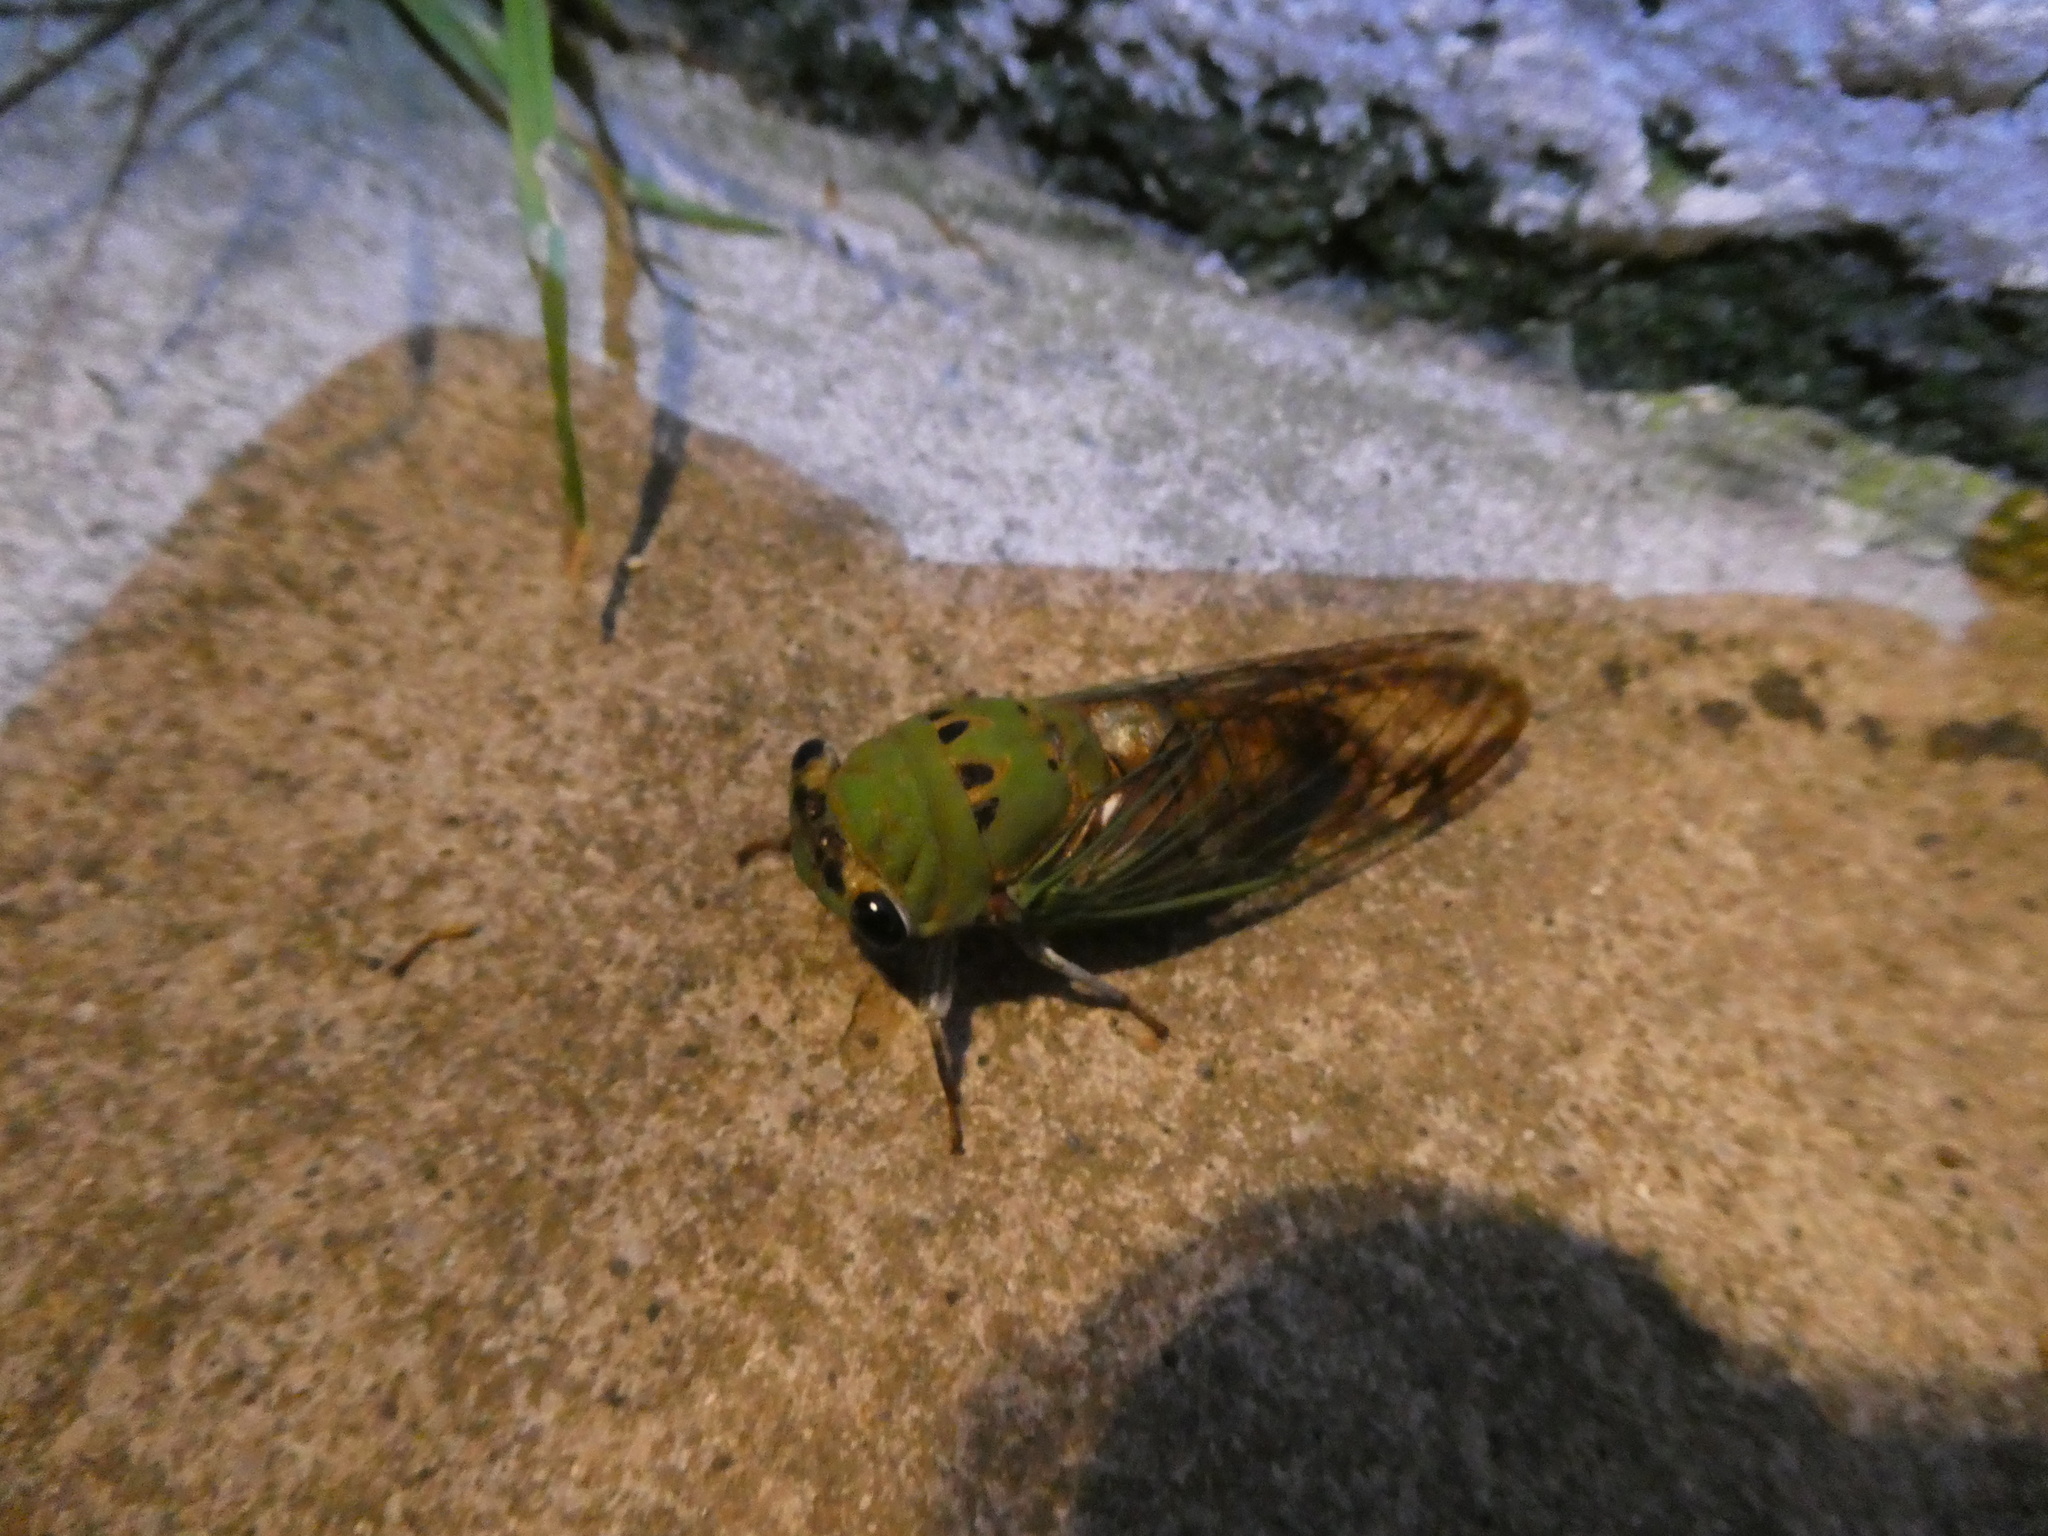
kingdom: Animalia
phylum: Arthropoda
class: Insecta
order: Hemiptera
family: Cicadidae
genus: Neotibicen
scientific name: Neotibicen superbus
